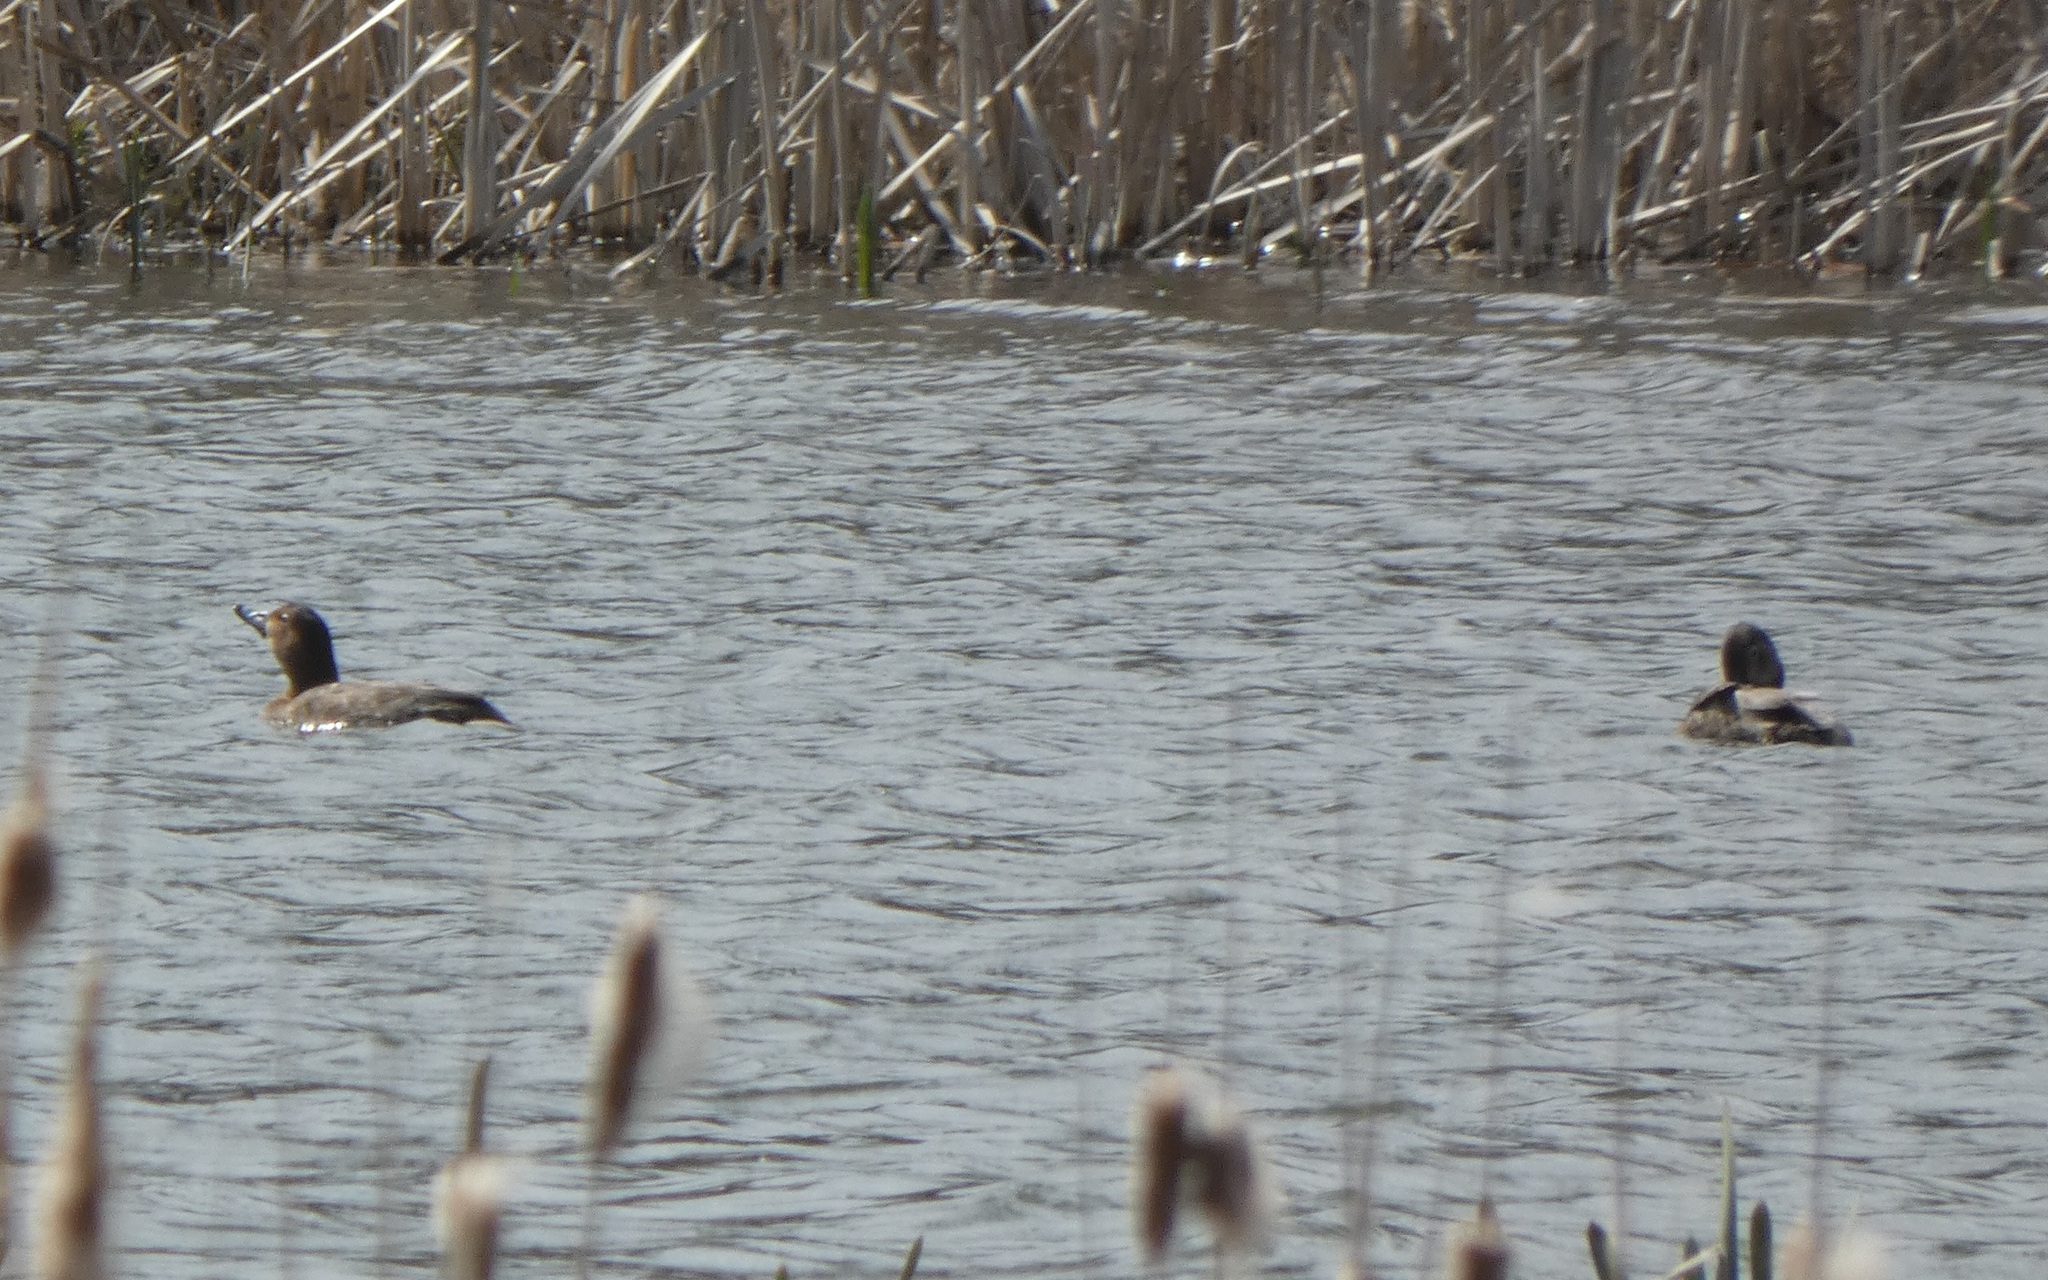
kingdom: Animalia
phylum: Chordata
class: Aves
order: Anseriformes
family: Anatidae
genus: Aythya
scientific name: Aythya ferina
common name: Common pochard
